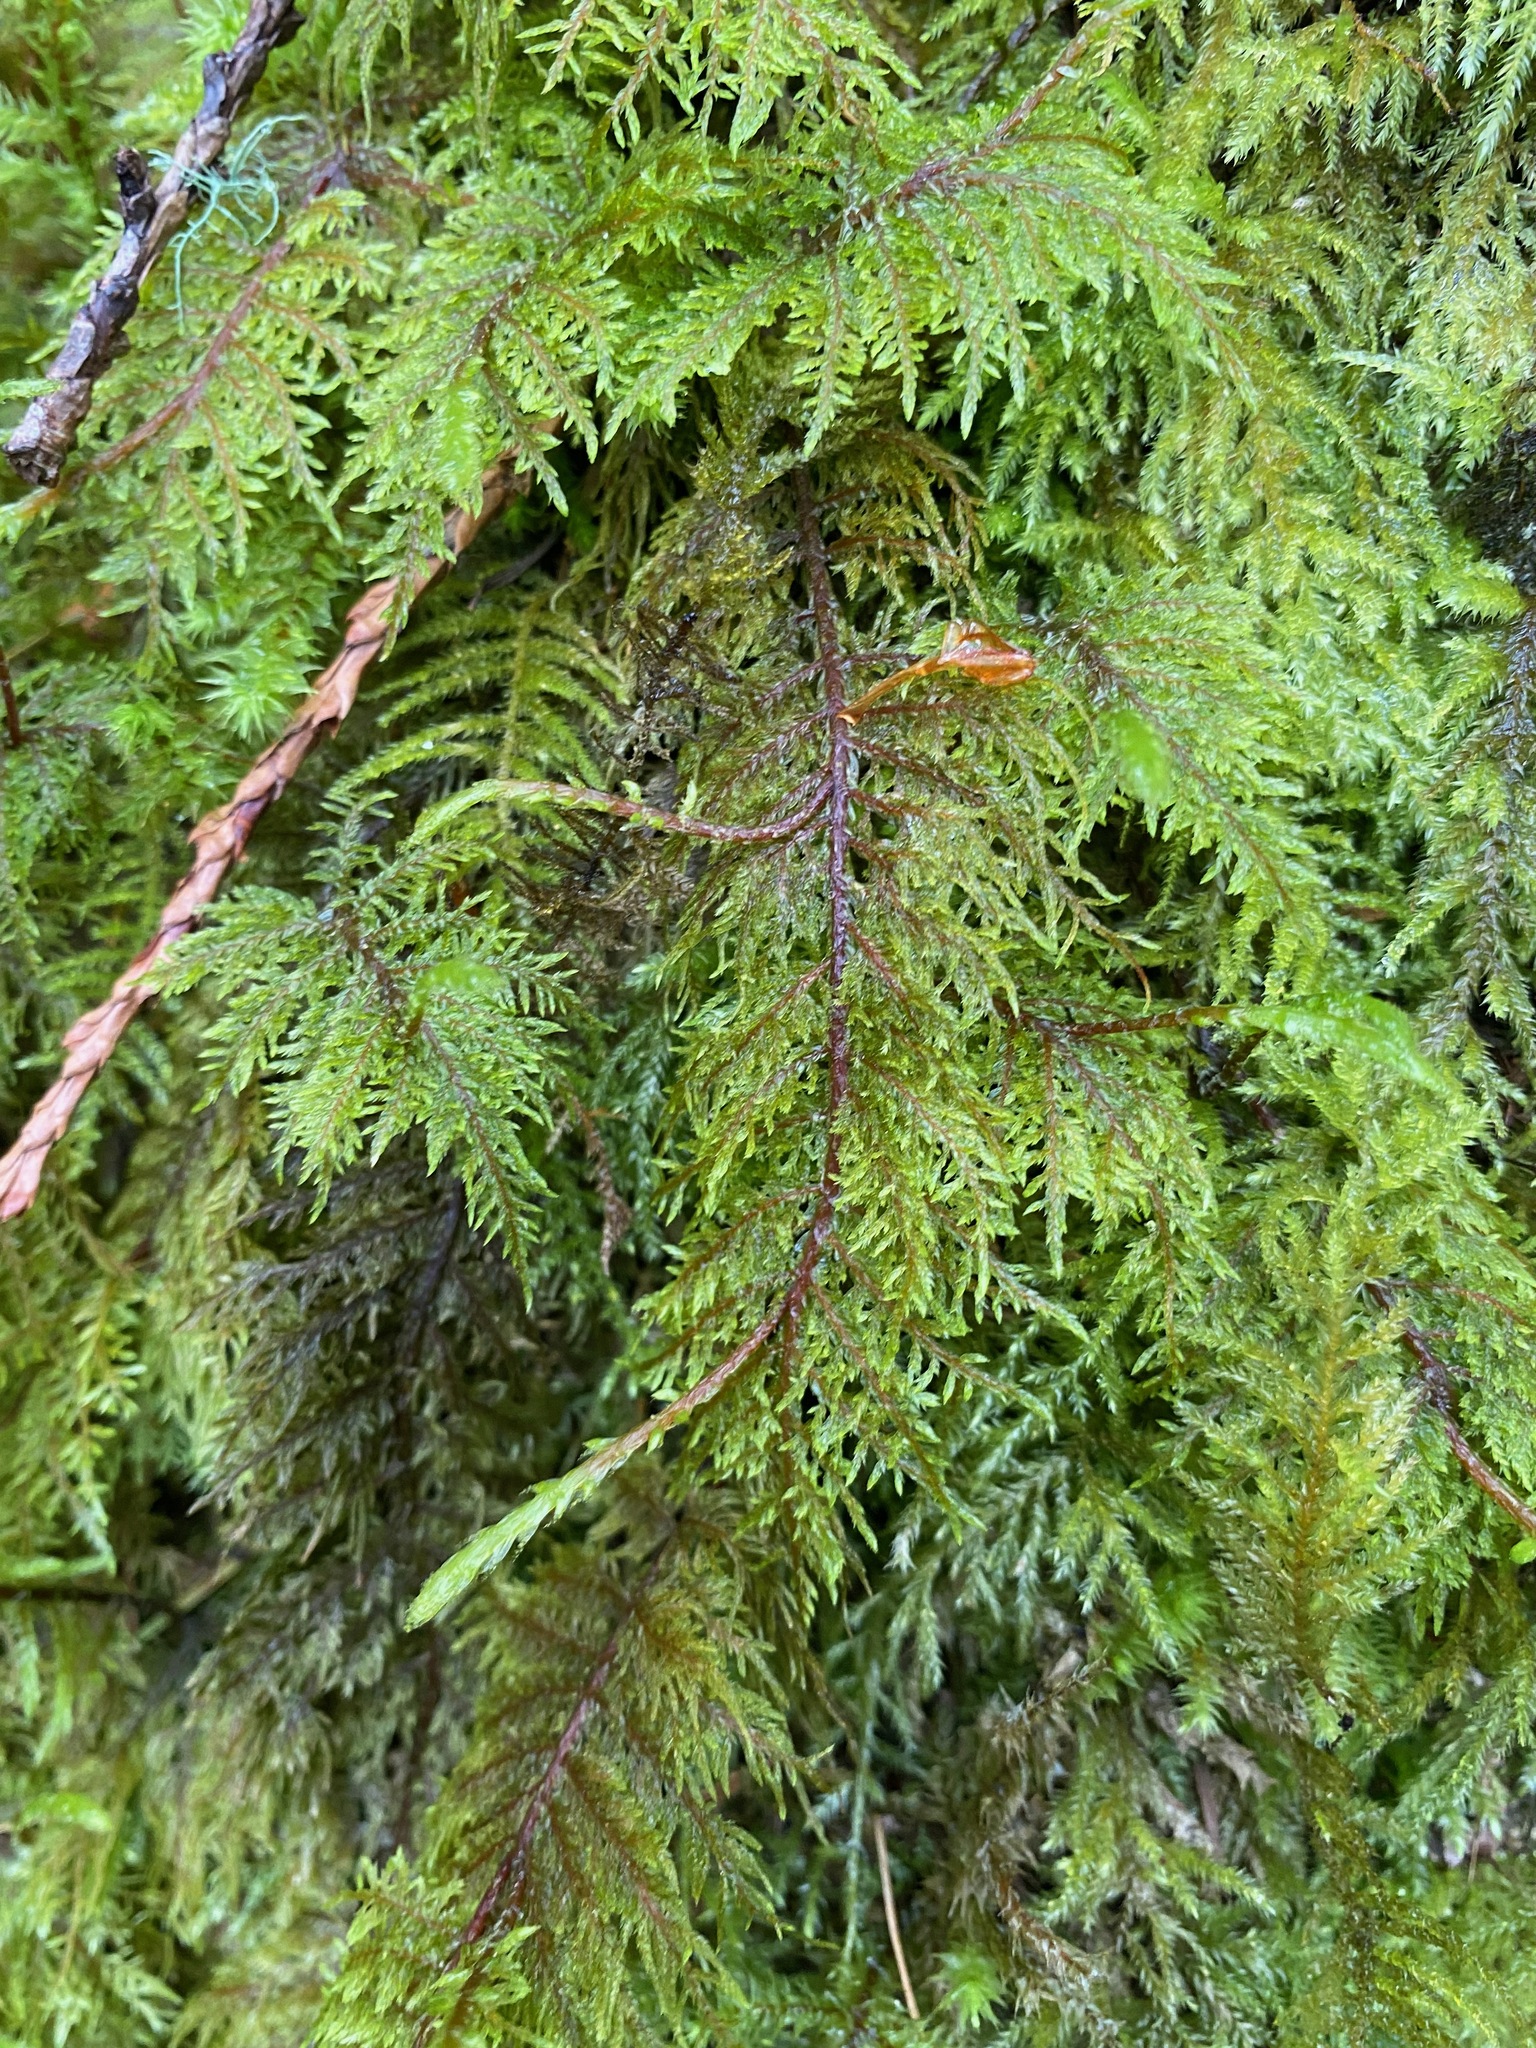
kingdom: Plantae
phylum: Bryophyta
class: Bryopsida
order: Hypnales
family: Hylocomiaceae
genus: Hylocomium
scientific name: Hylocomium splendens
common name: Stairstep moss
